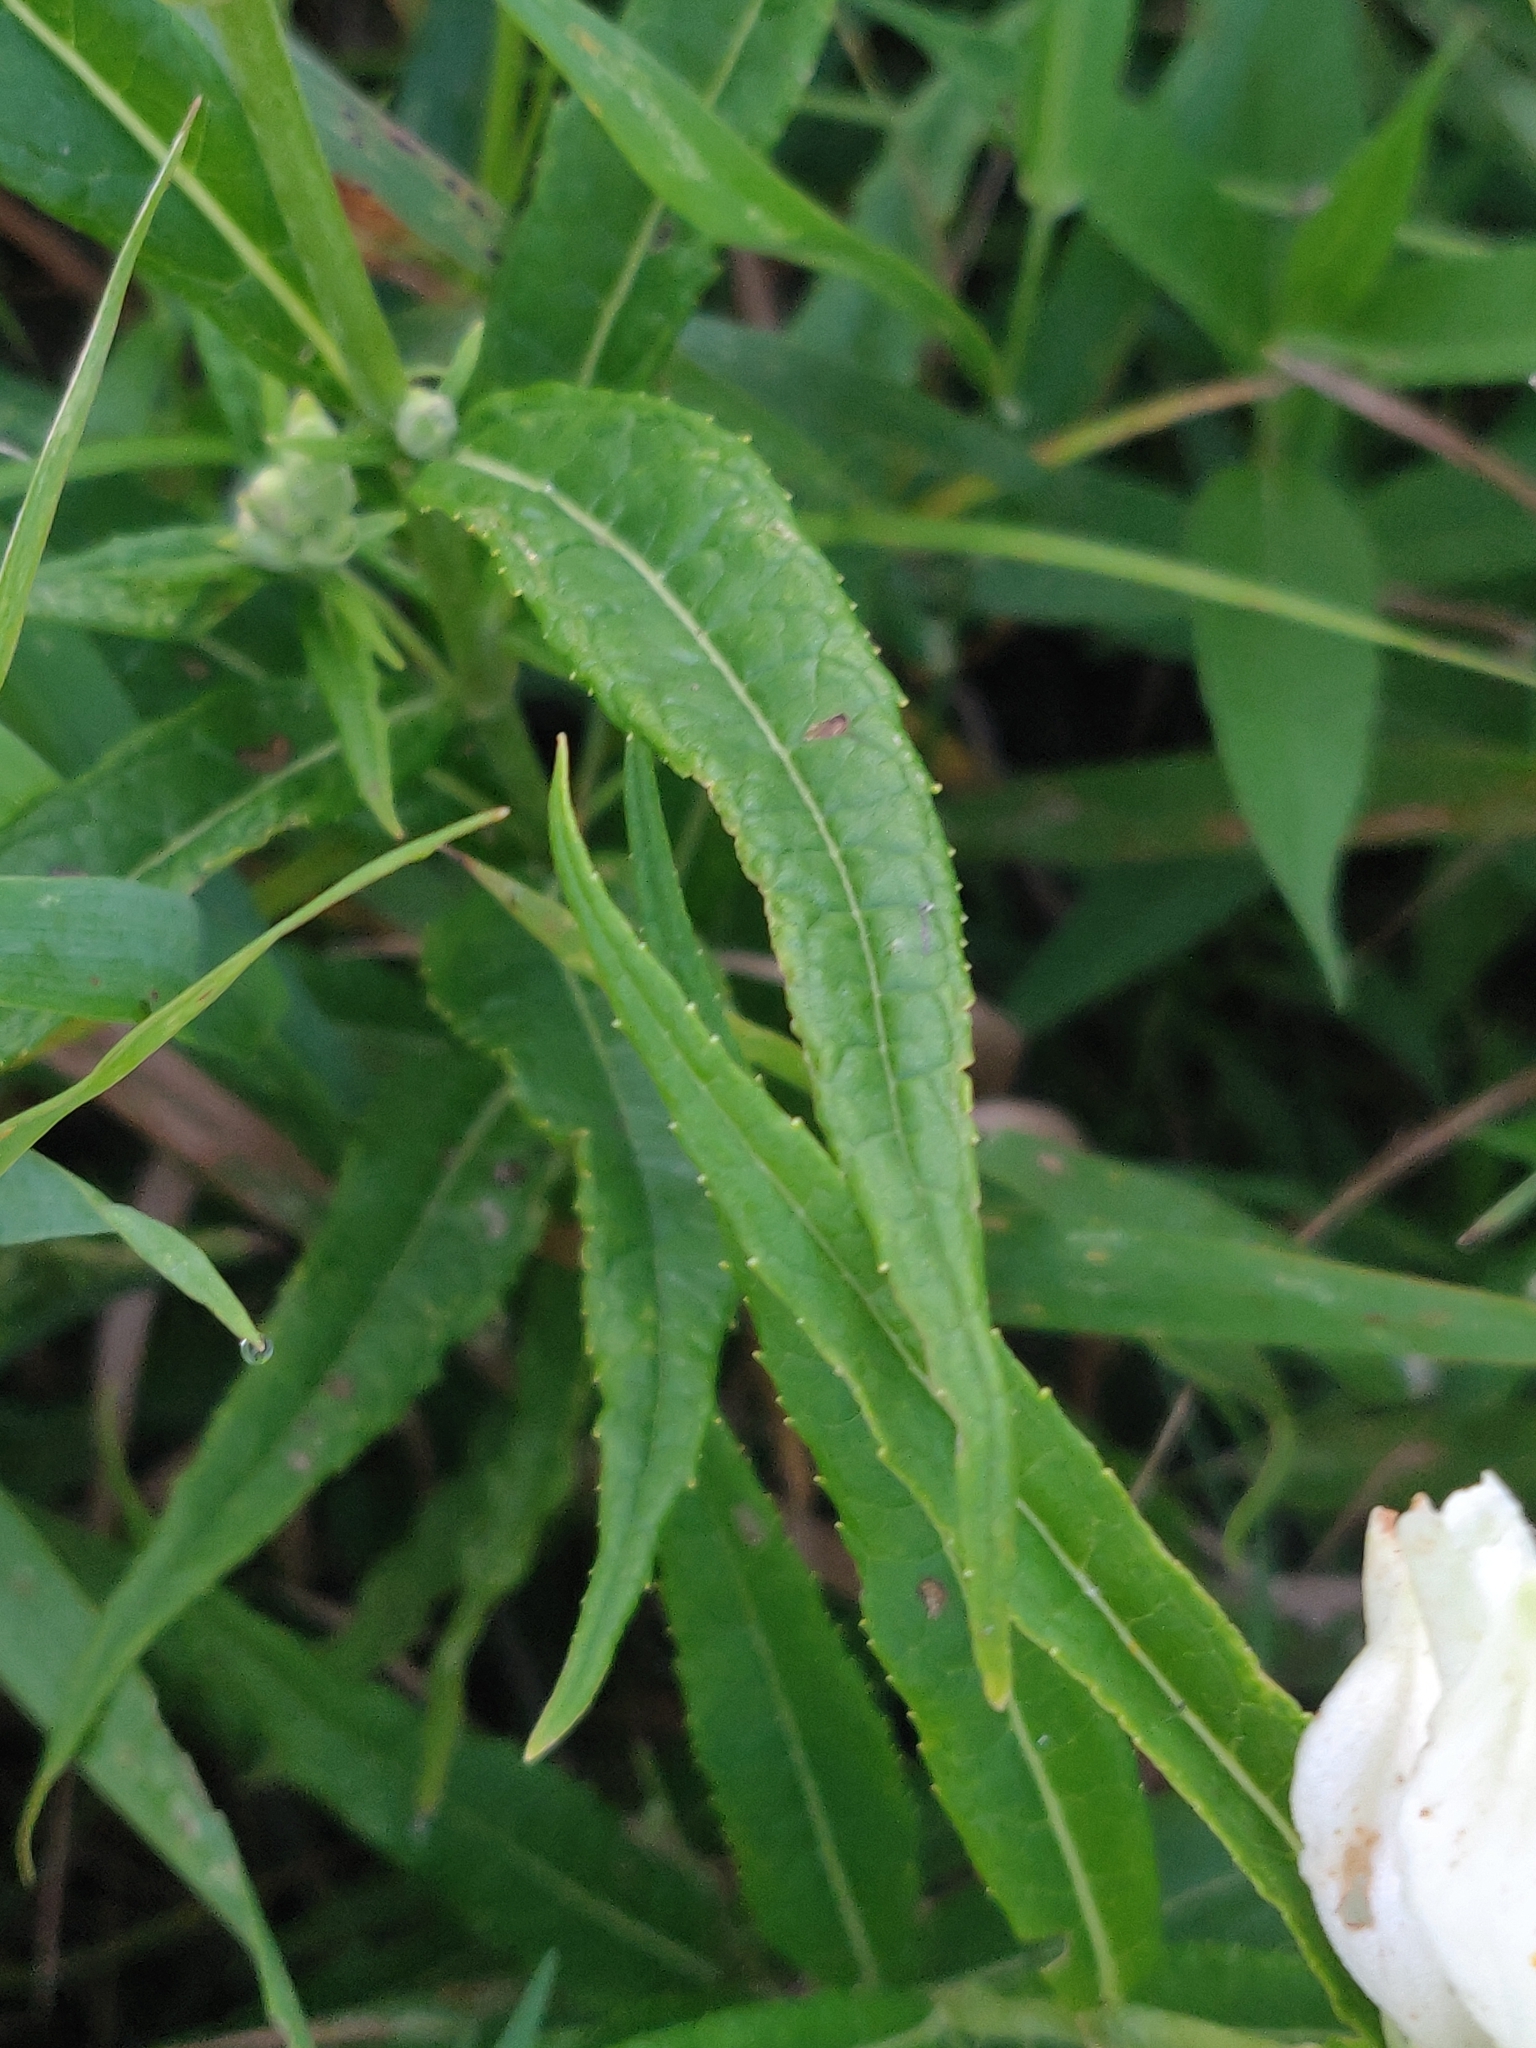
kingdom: Plantae
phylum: Tracheophyta
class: Magnoliopsida
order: Lamiales
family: Plantaginaceae
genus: Chelone
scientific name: Chelone glabra
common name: Snakehead
